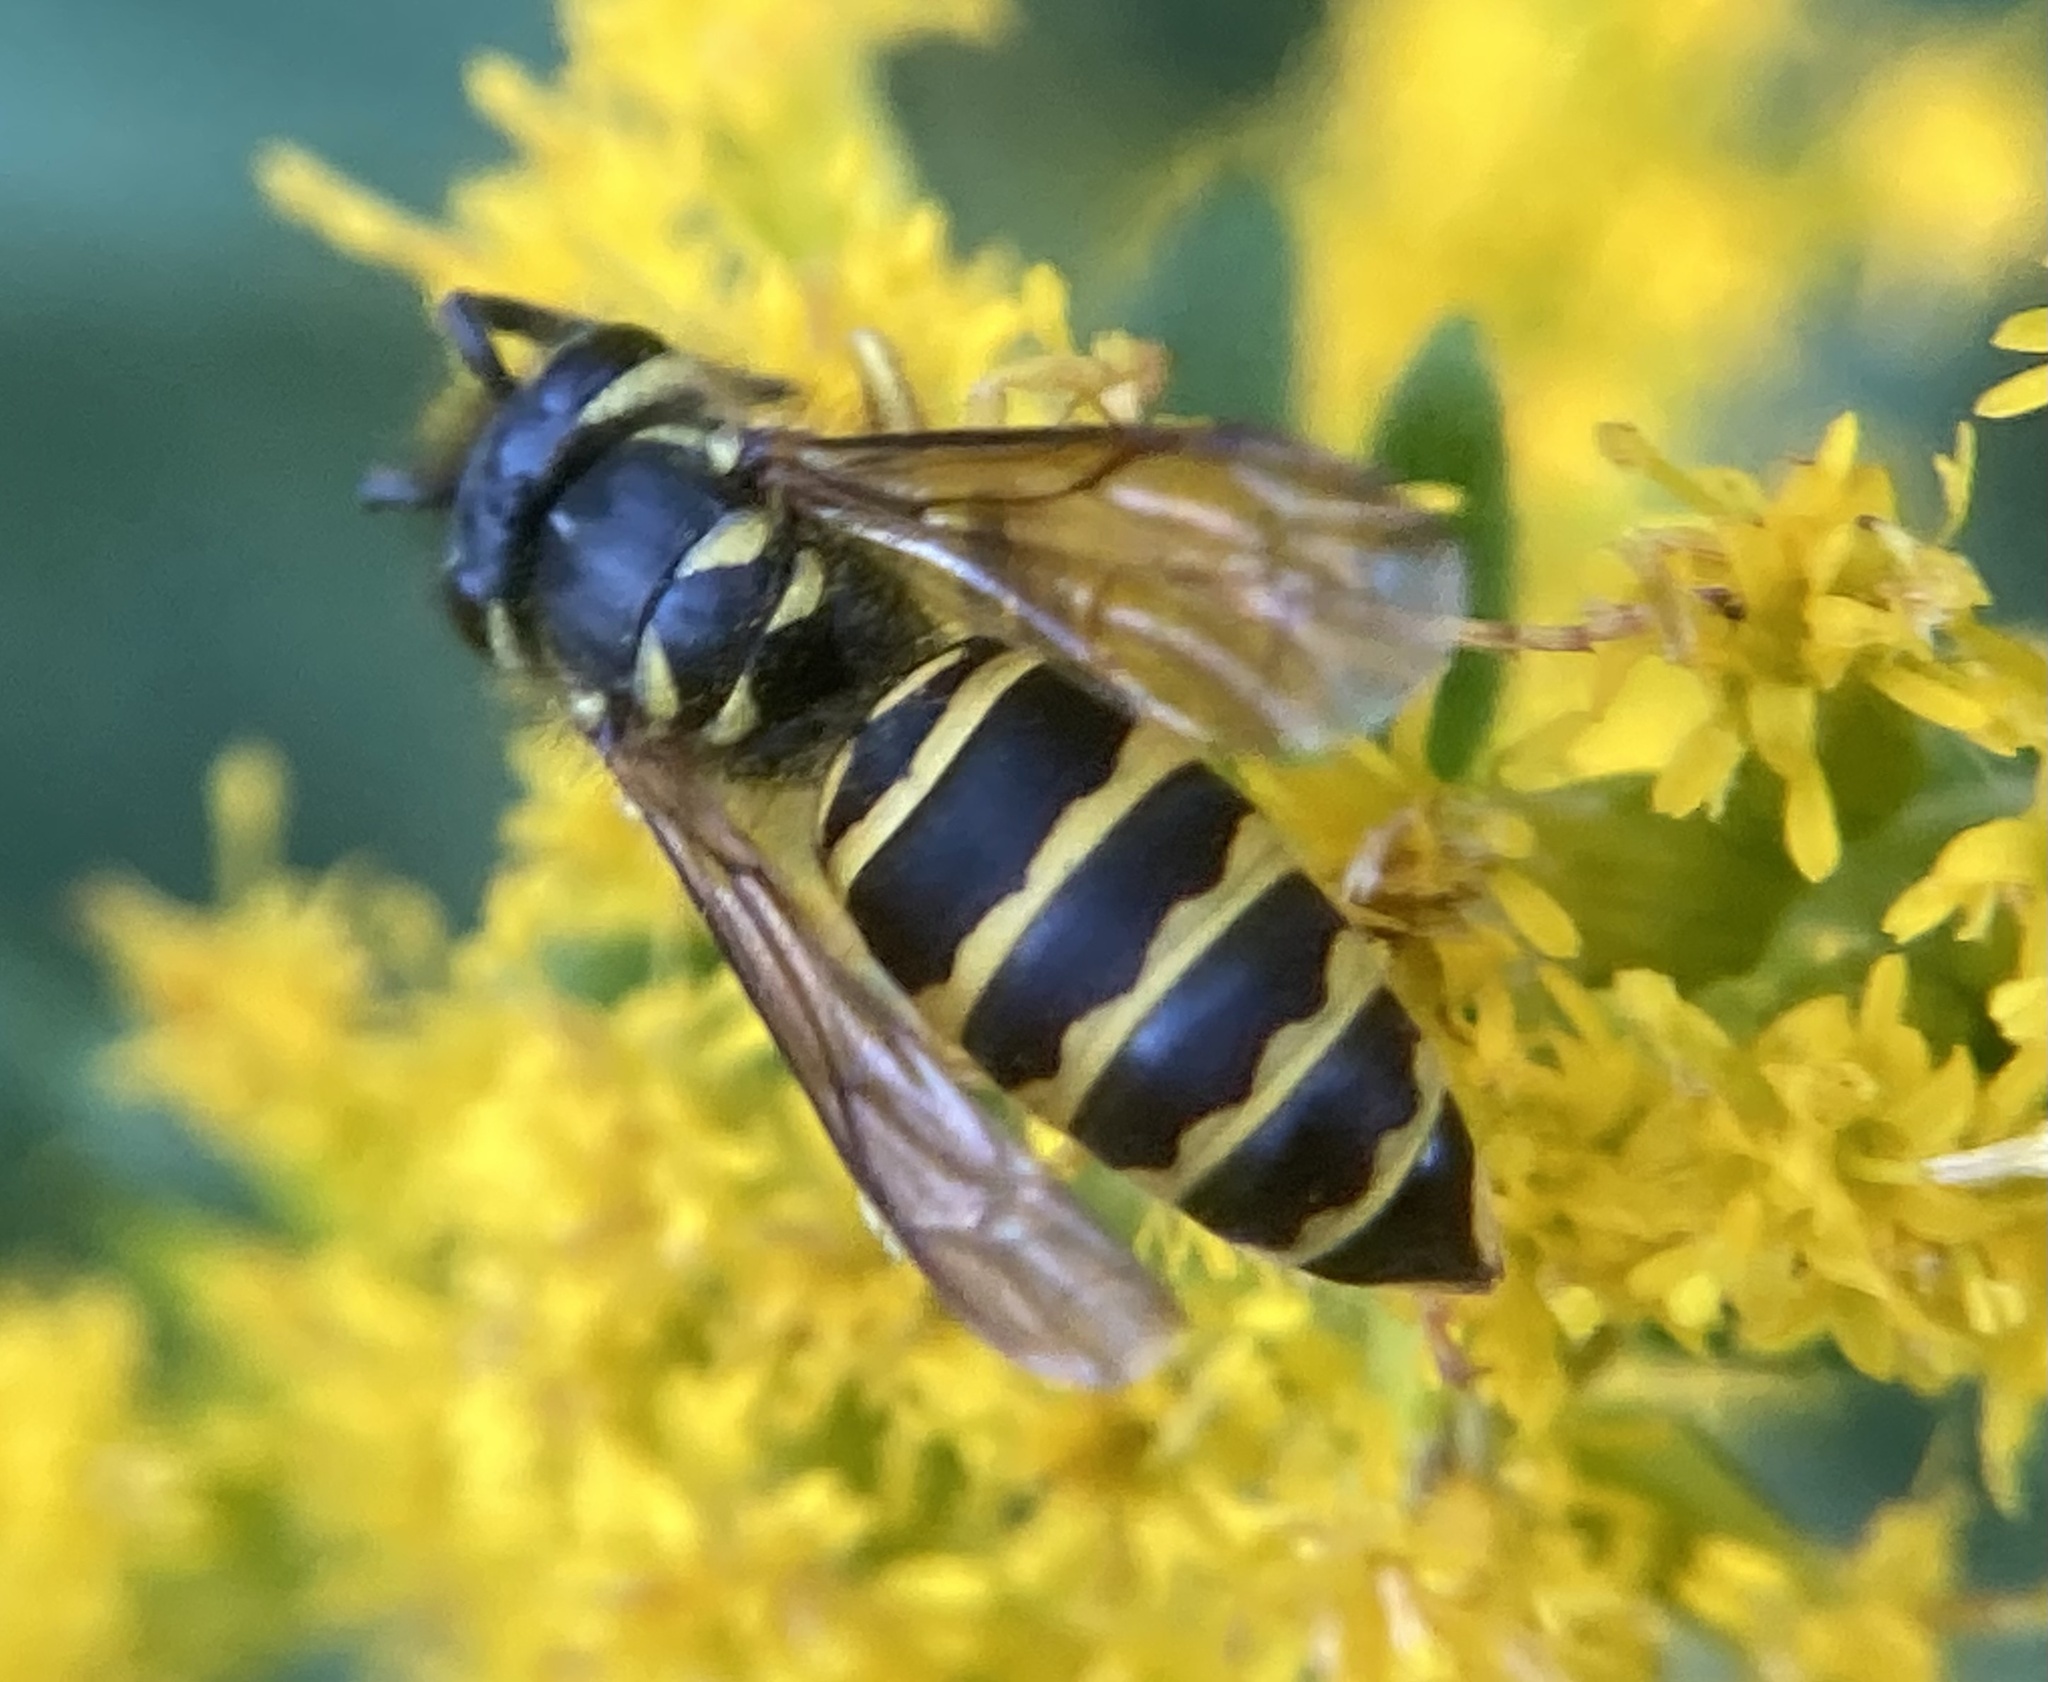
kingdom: Animalia
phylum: Arthropoda
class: Insecta
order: Hymenoptera
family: Vespidae
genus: Vespula
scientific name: Vespula maculifrons
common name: Eastern yellowjacket
